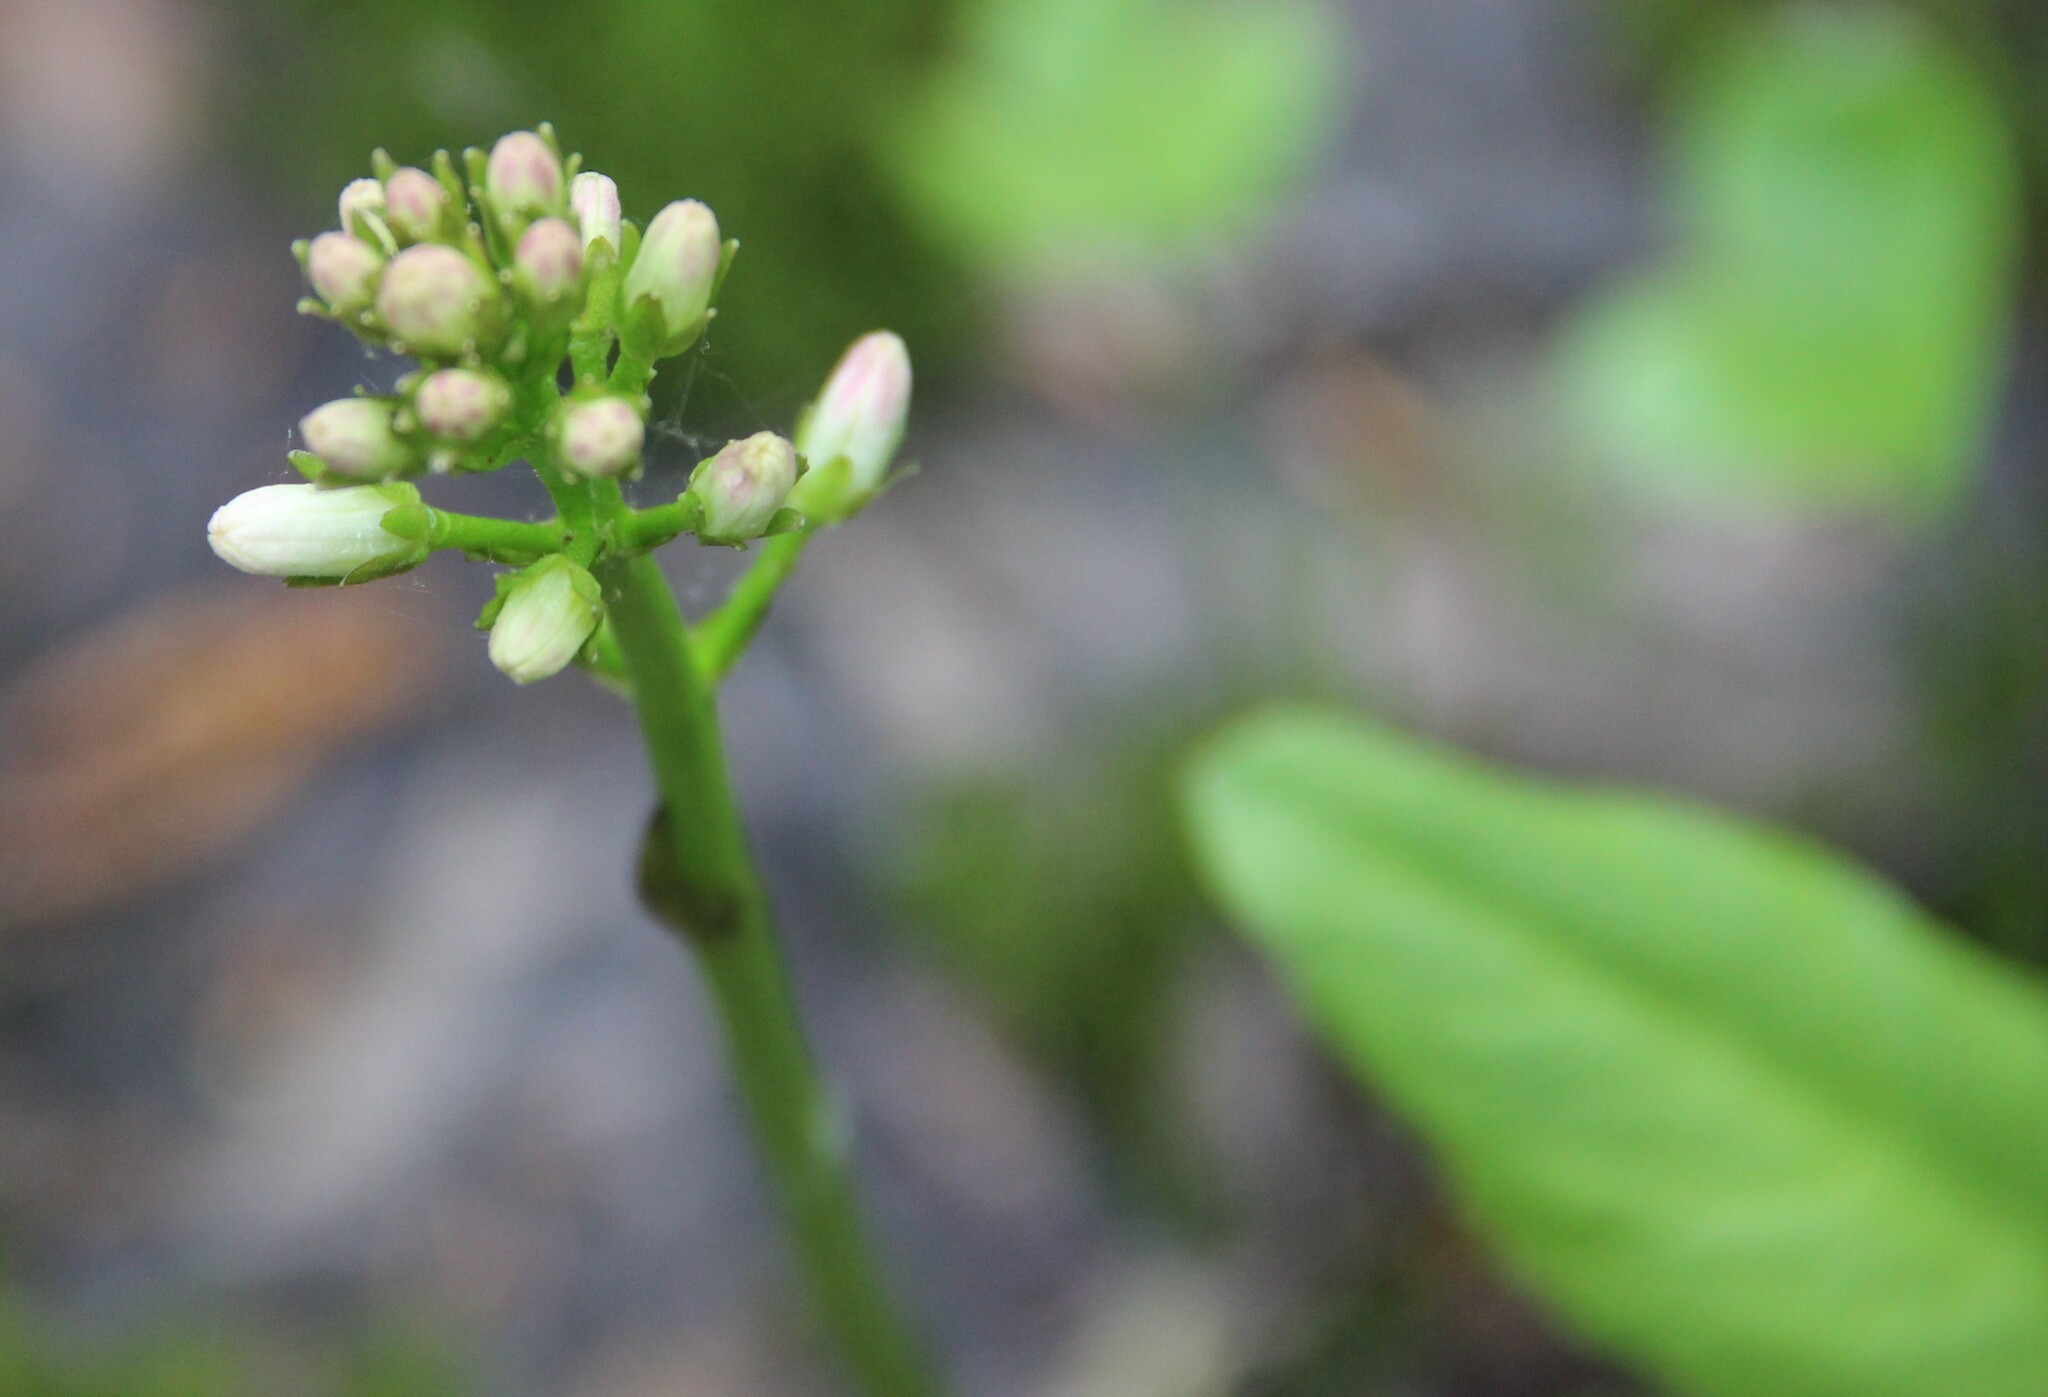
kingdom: Plantae
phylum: Tracheophyta
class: Magnoliopsida
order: Asterales
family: Menyanthaceae
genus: Menyanthes
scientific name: Menyanthes trifoliata
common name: Bogbean
